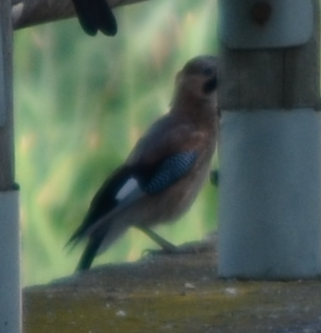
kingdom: Animalia
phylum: Chordata
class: Aves
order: Passeriformes
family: Corvidae
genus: Garrulus
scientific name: Garrulus glandarius
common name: Eurasian jay
